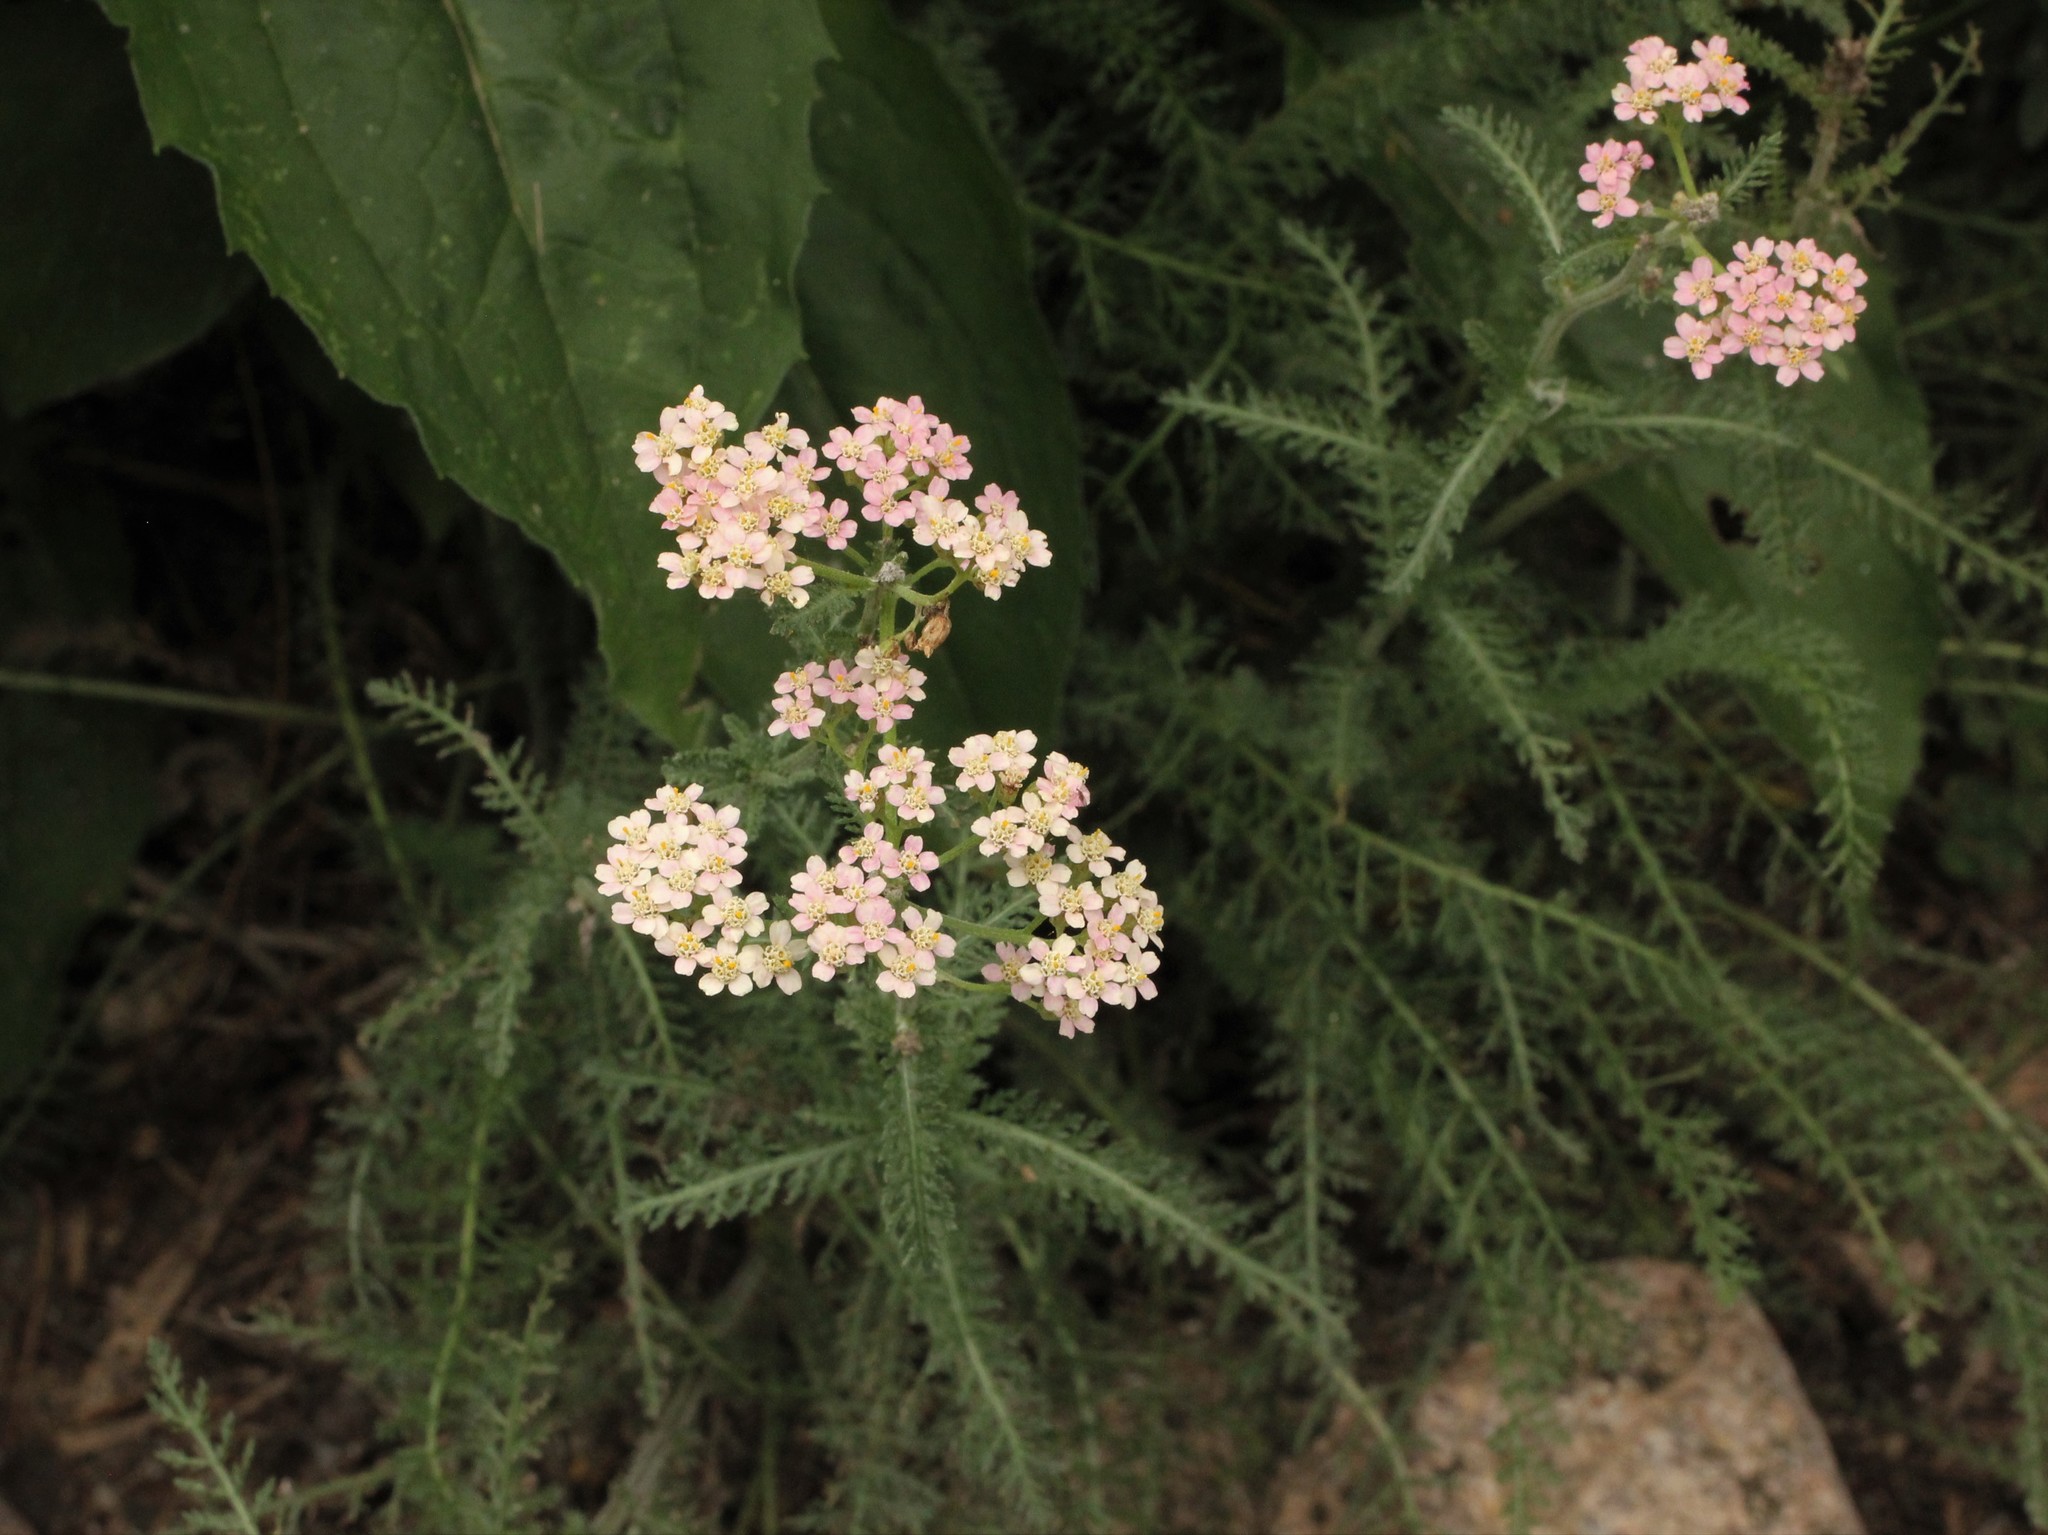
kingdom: Plantae
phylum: Tracheophyta
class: Magnoliopsida
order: Asterales
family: Asteraceae
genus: Achillea
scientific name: Achillea millefolium
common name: Yarrow
